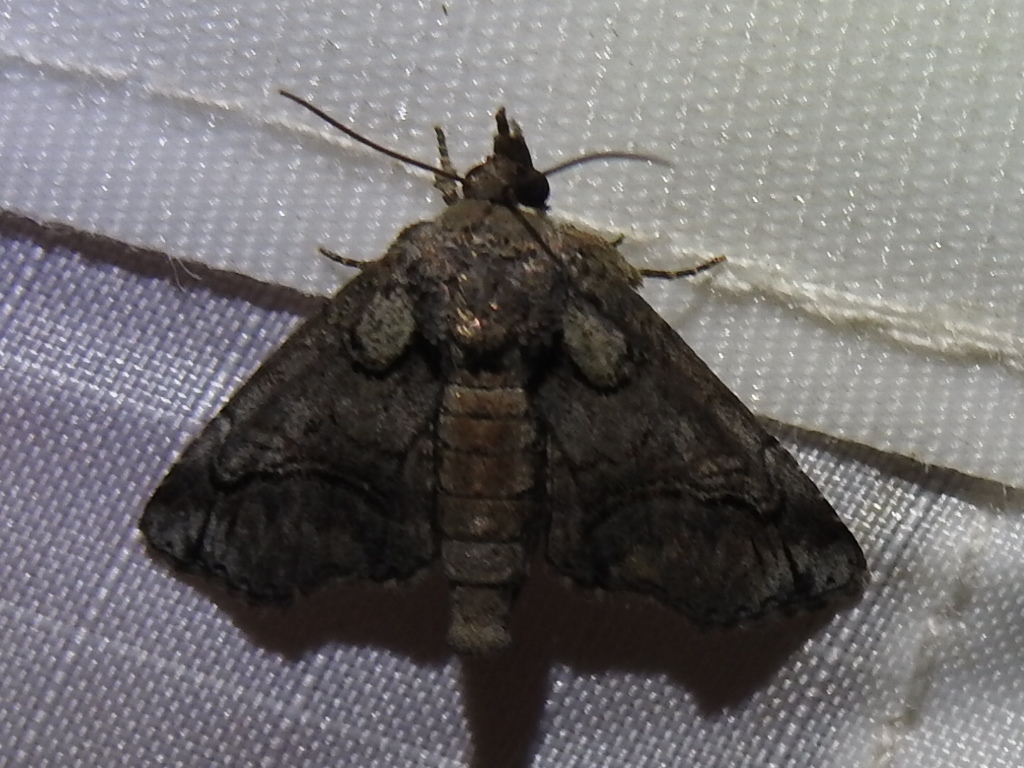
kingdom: Animalia
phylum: Arthropoda
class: Insecta
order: Lepidoptera
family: Euteliidae
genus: Paectes
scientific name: Paectes abrostoloides
